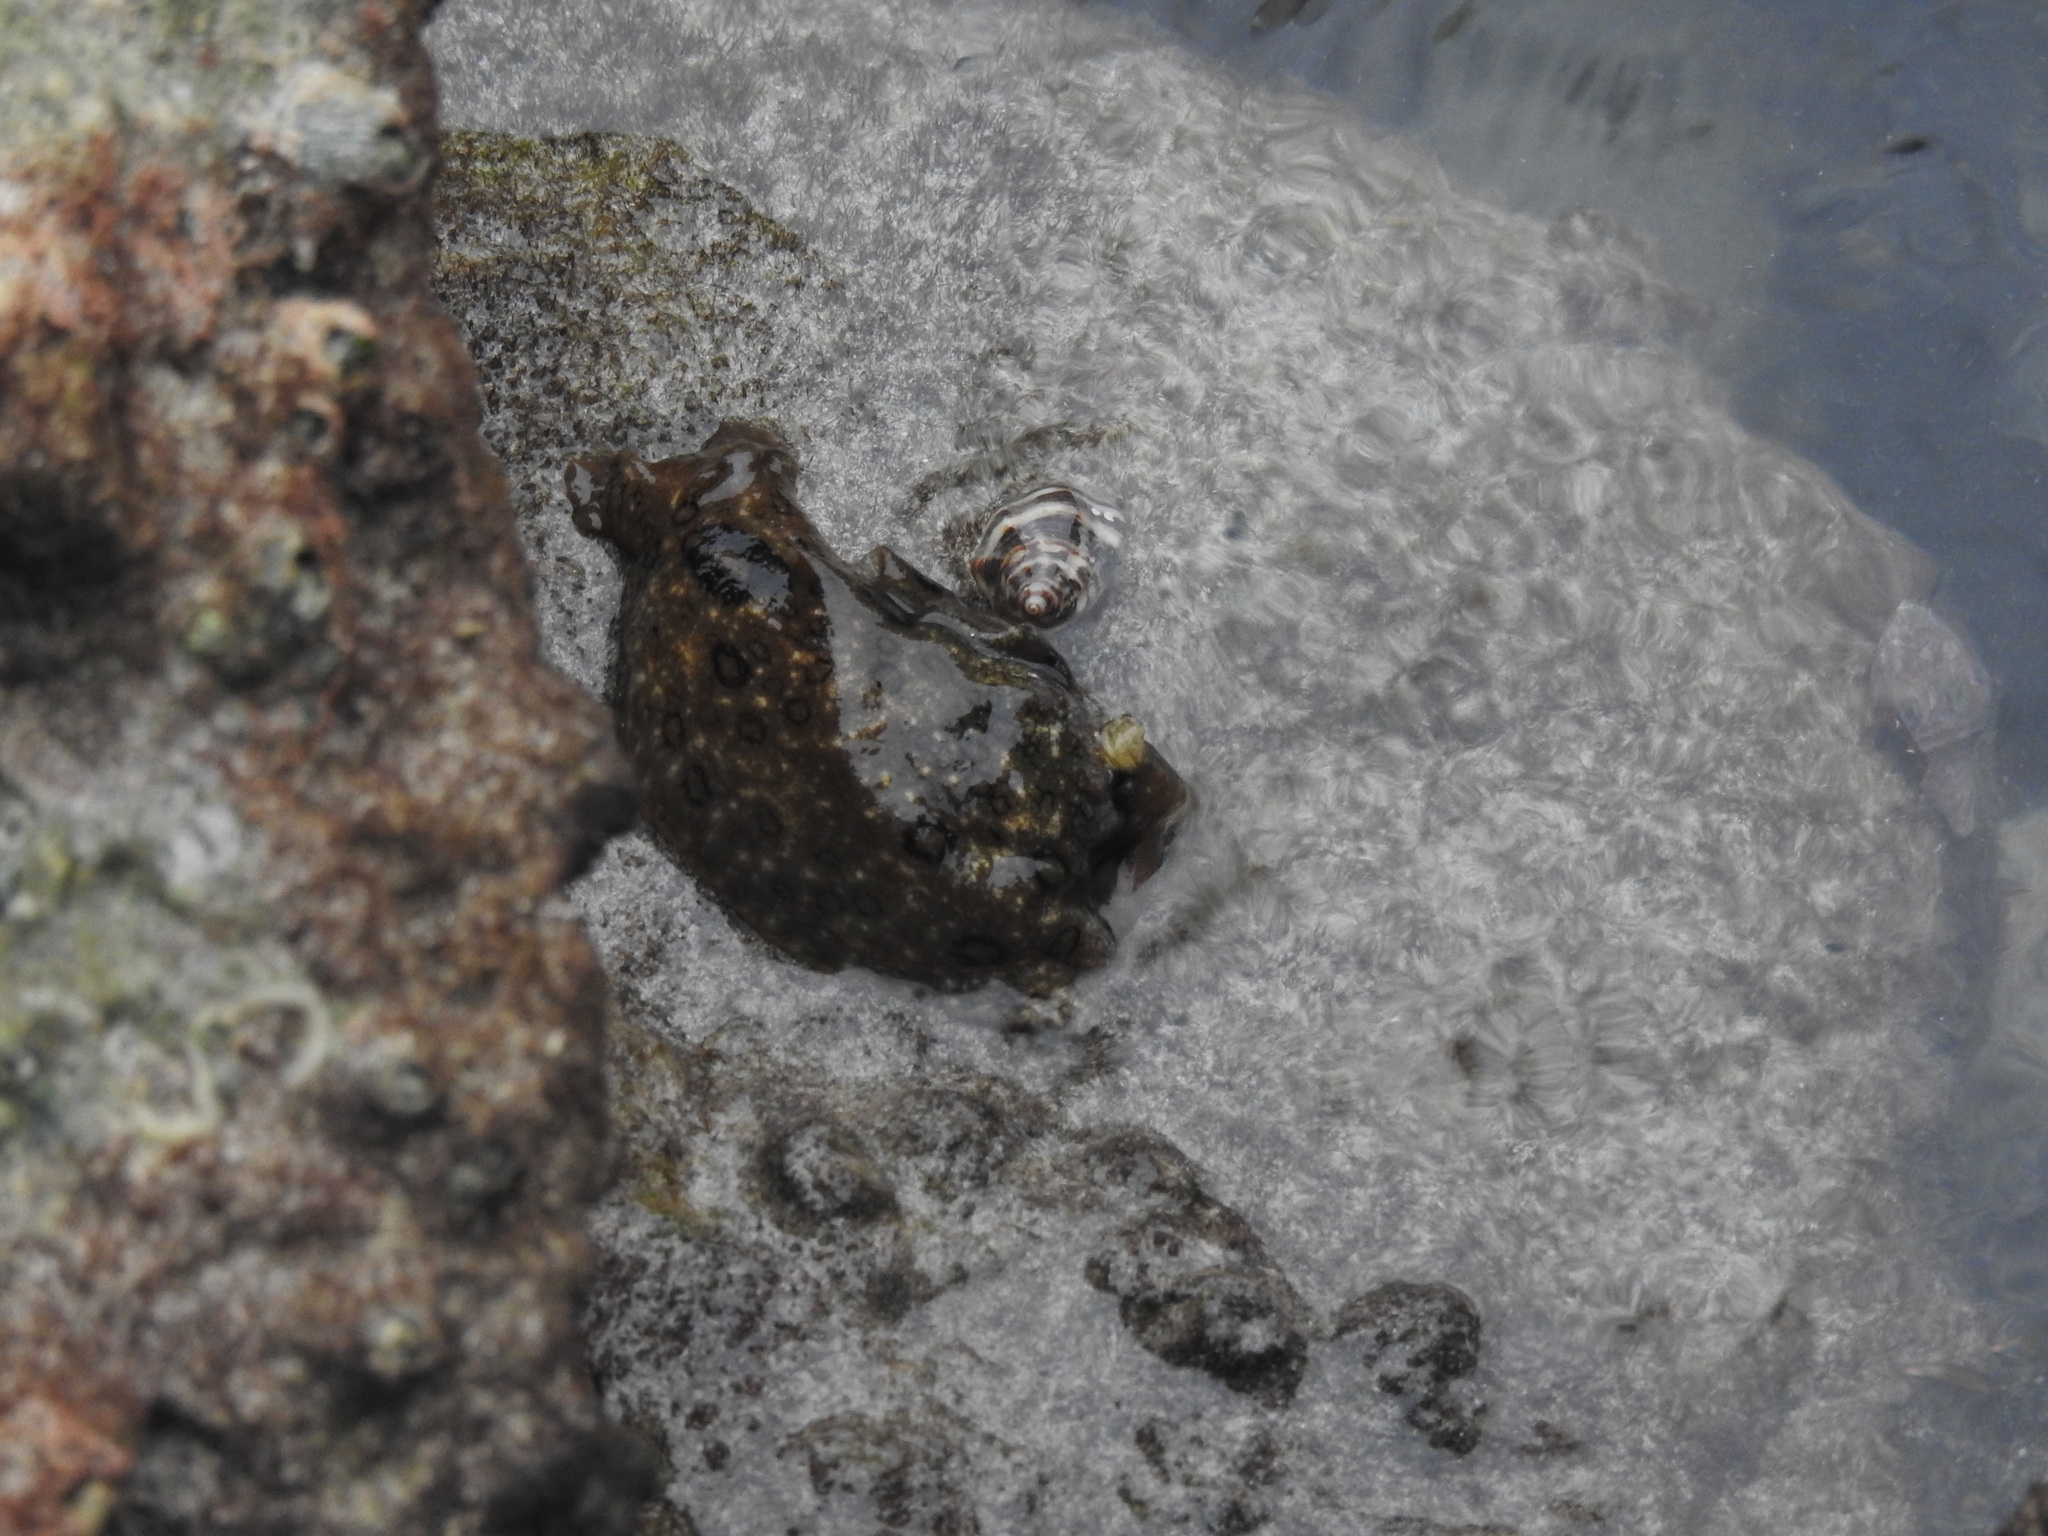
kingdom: Animalia
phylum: Mollusca
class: Gastropoda
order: Aplysiida
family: Aplysiidae
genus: Aplysia
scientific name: Aplysia dactylomela
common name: Large-spotted sea hare
